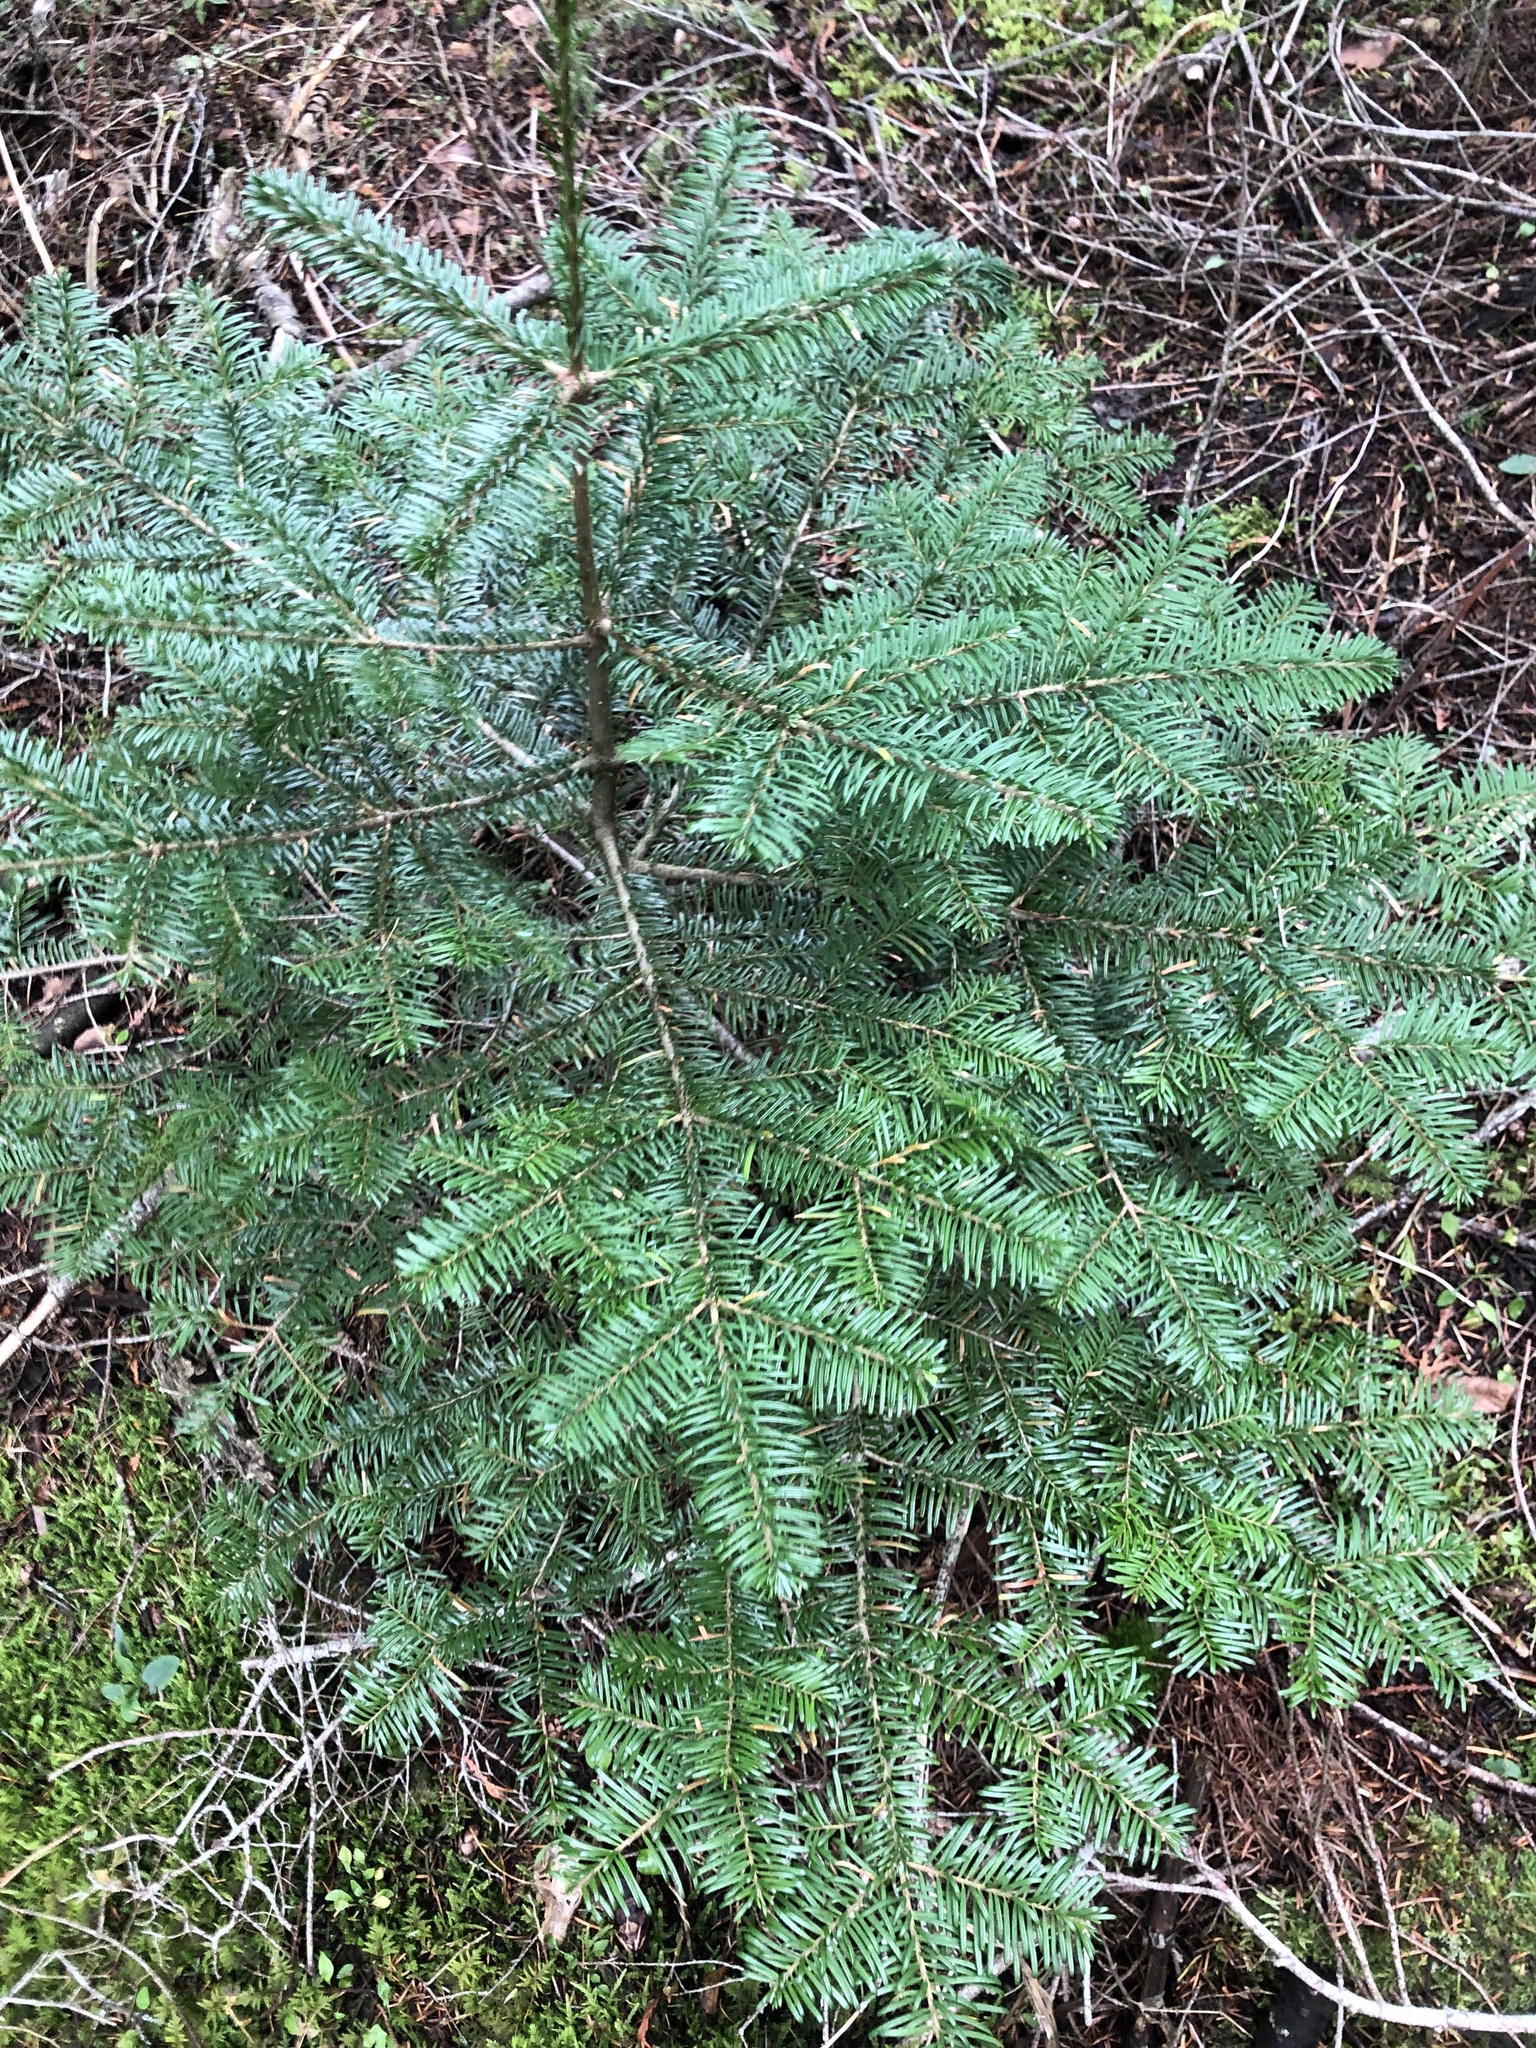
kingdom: Plantae
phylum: Tracheophyta
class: Pinopsida
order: Pinales
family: Pinaceae
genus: Abies
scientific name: Abies amabilis
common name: Pacific silver fir
